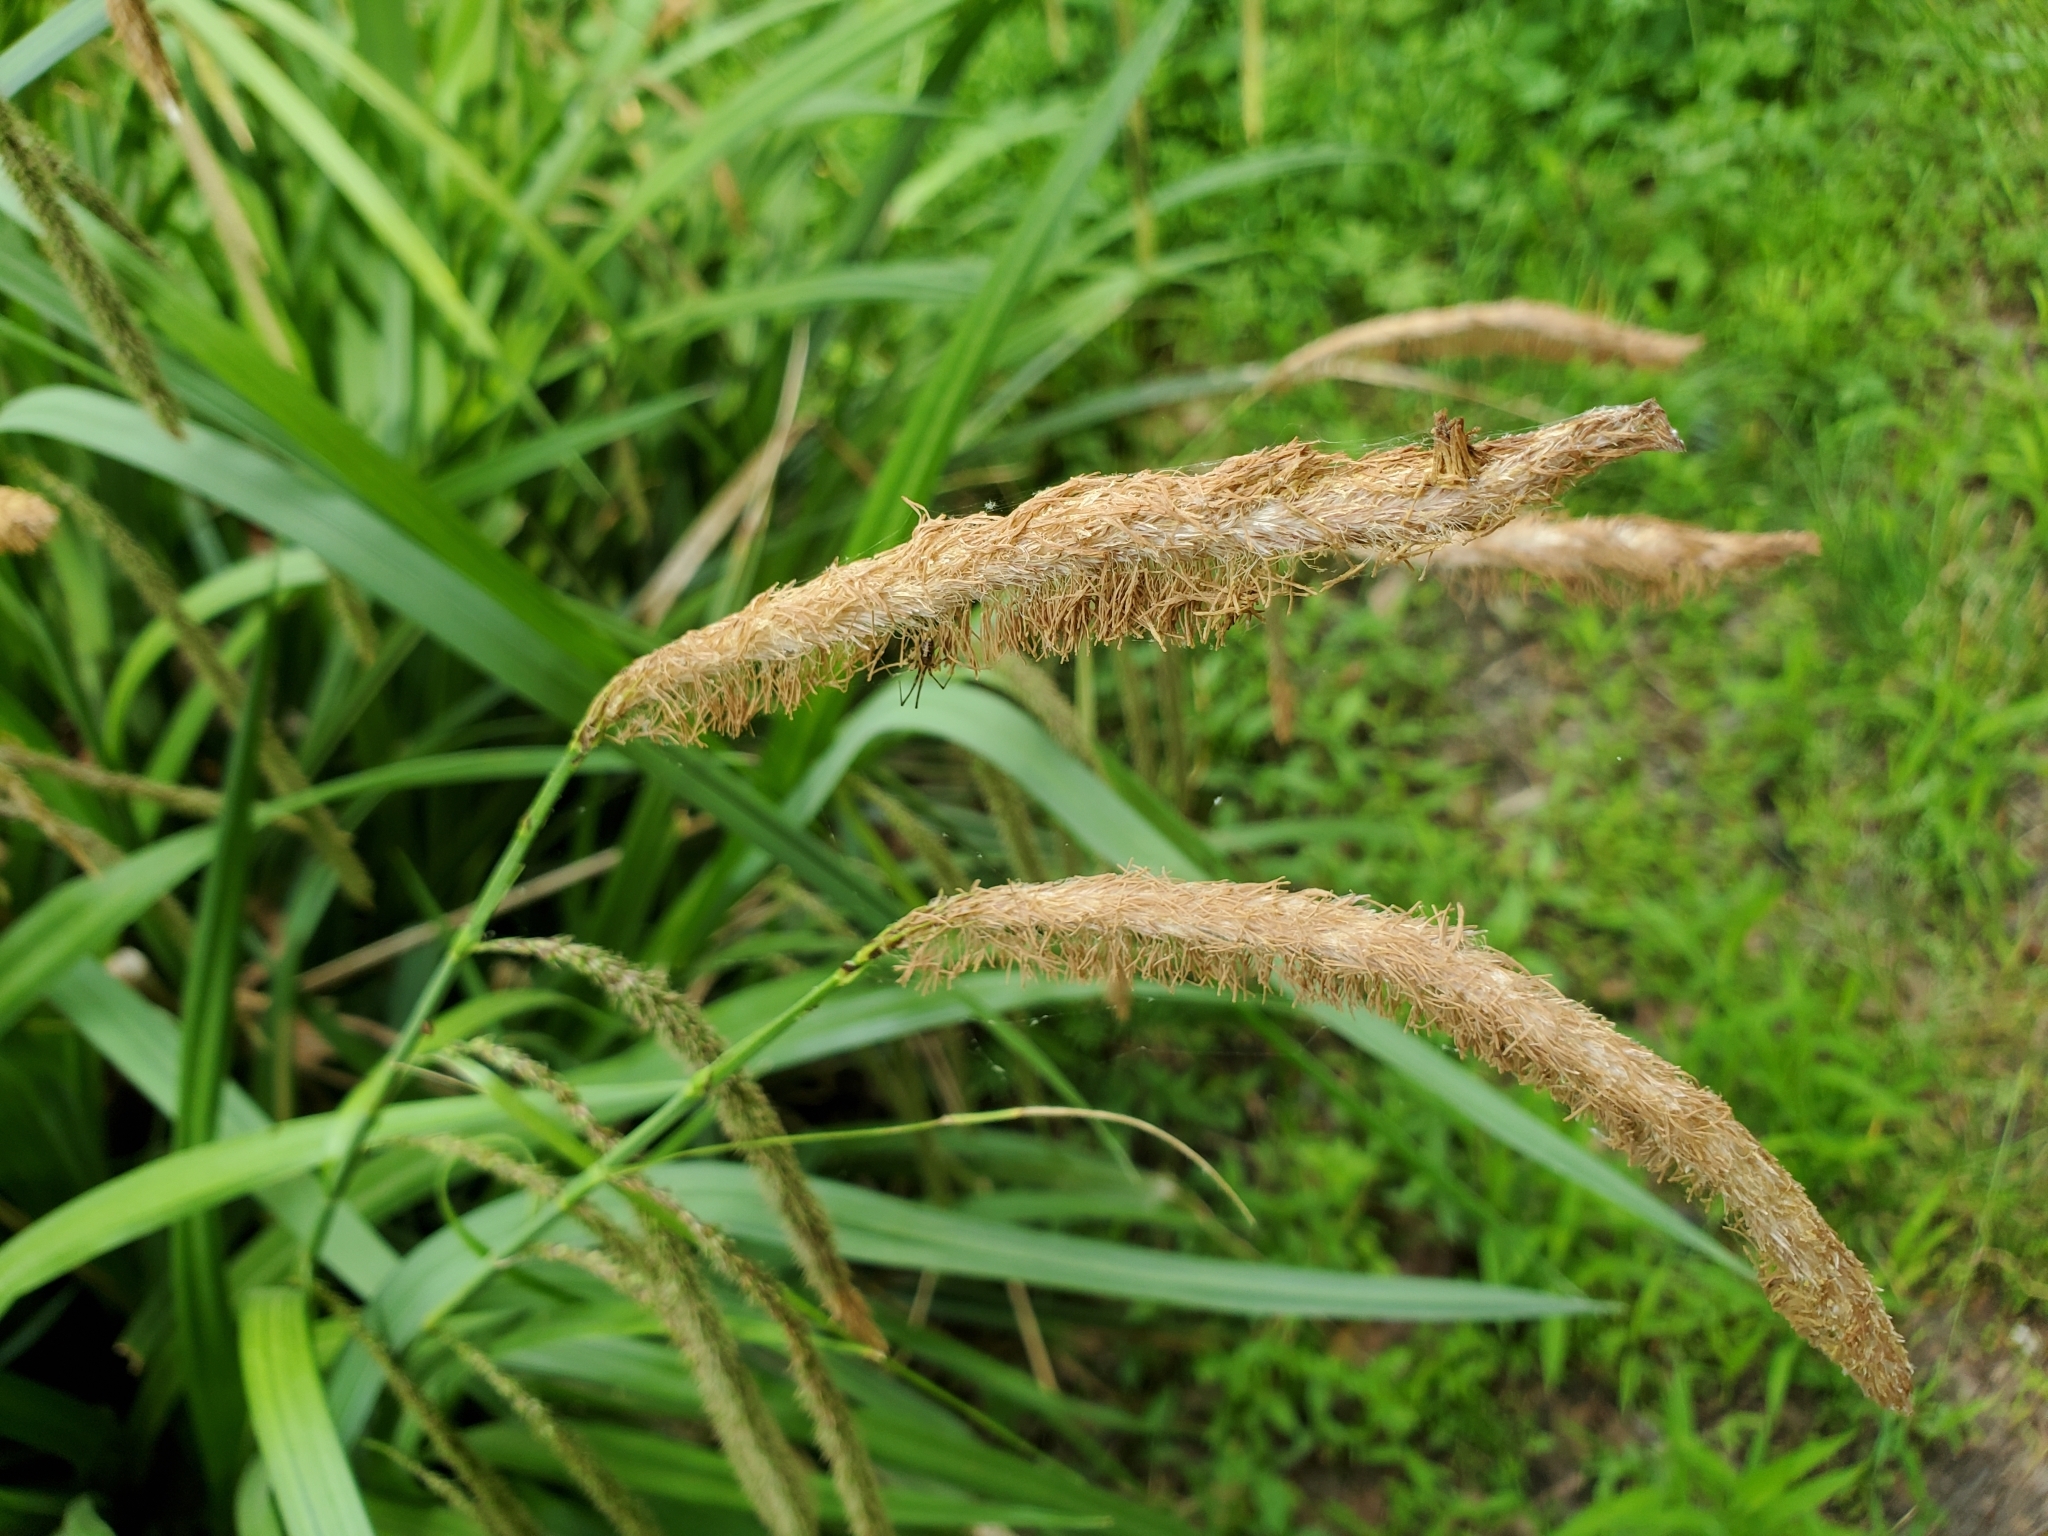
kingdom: Plantae
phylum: Tracheophyta
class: Liliopsida
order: Poales
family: Cyperaceae
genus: Carex
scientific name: Carex pendula
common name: Pendulous sedge
